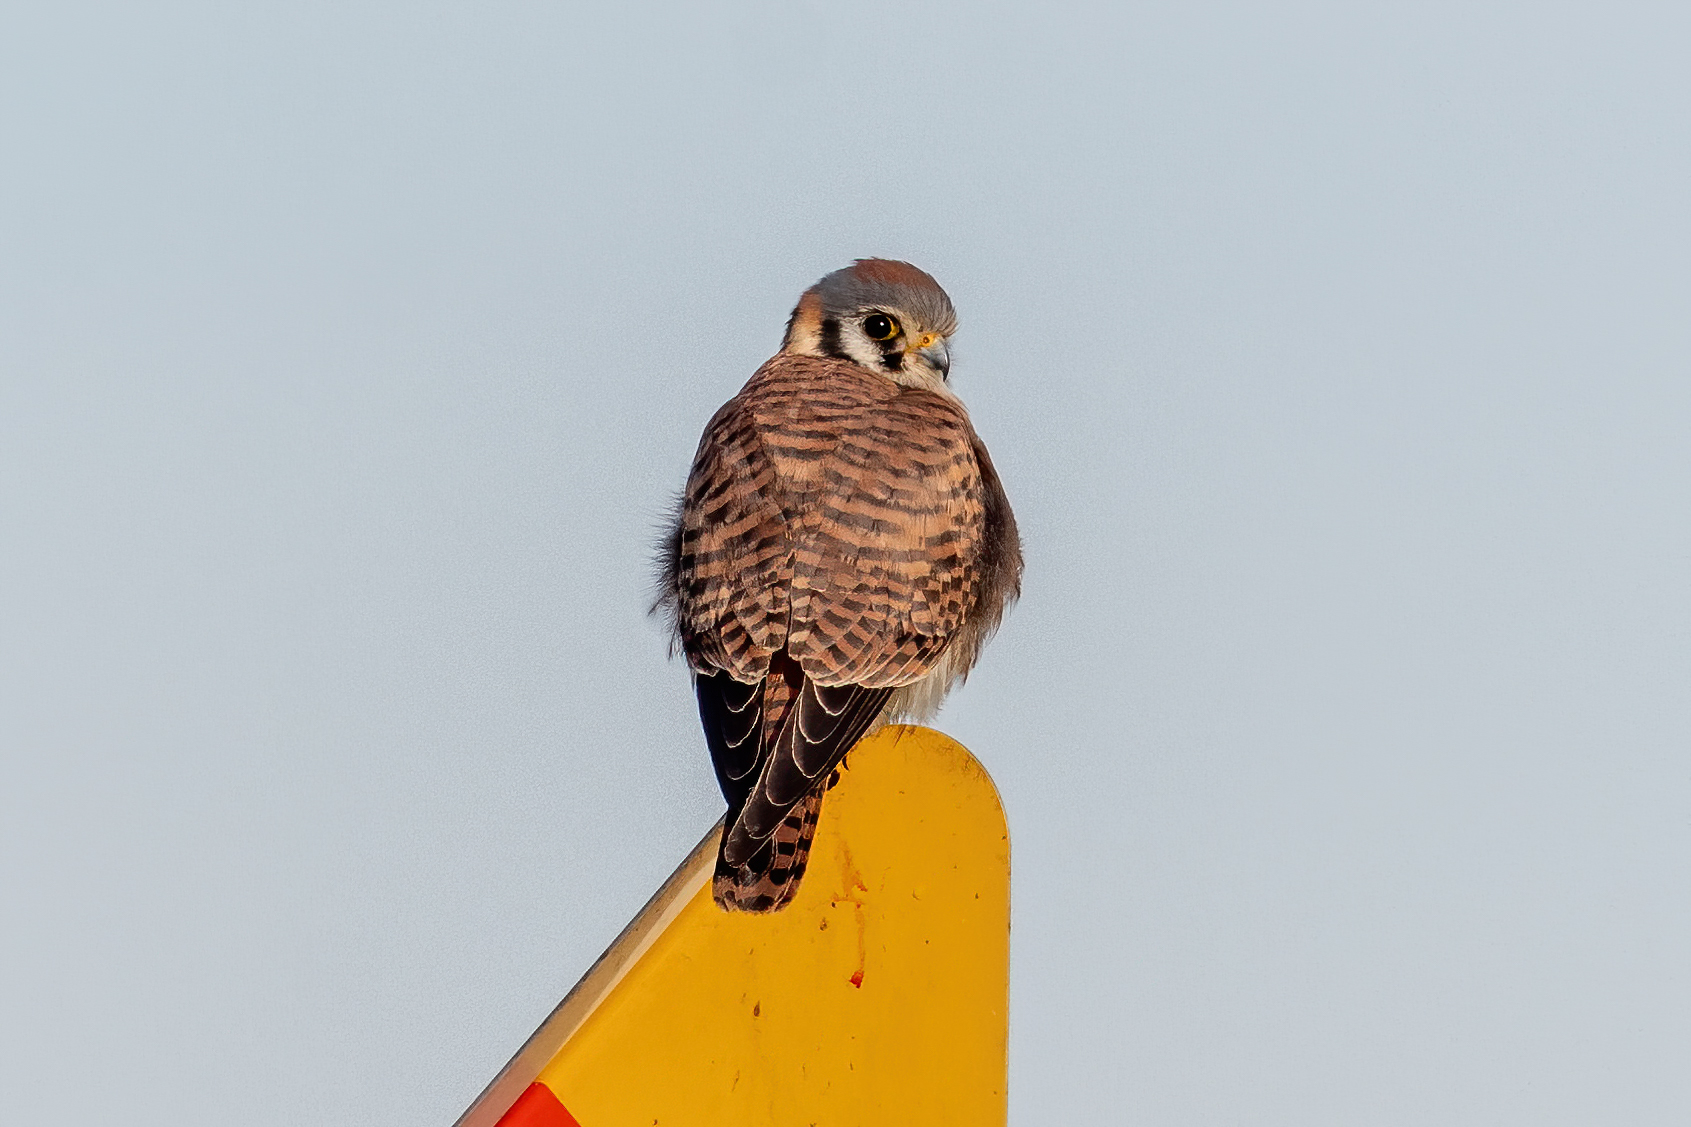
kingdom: Animalia
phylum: Chordata
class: Aves
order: Falconiformes
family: Falconidae
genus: Falco
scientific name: Falco sparverius
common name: American kestrel
